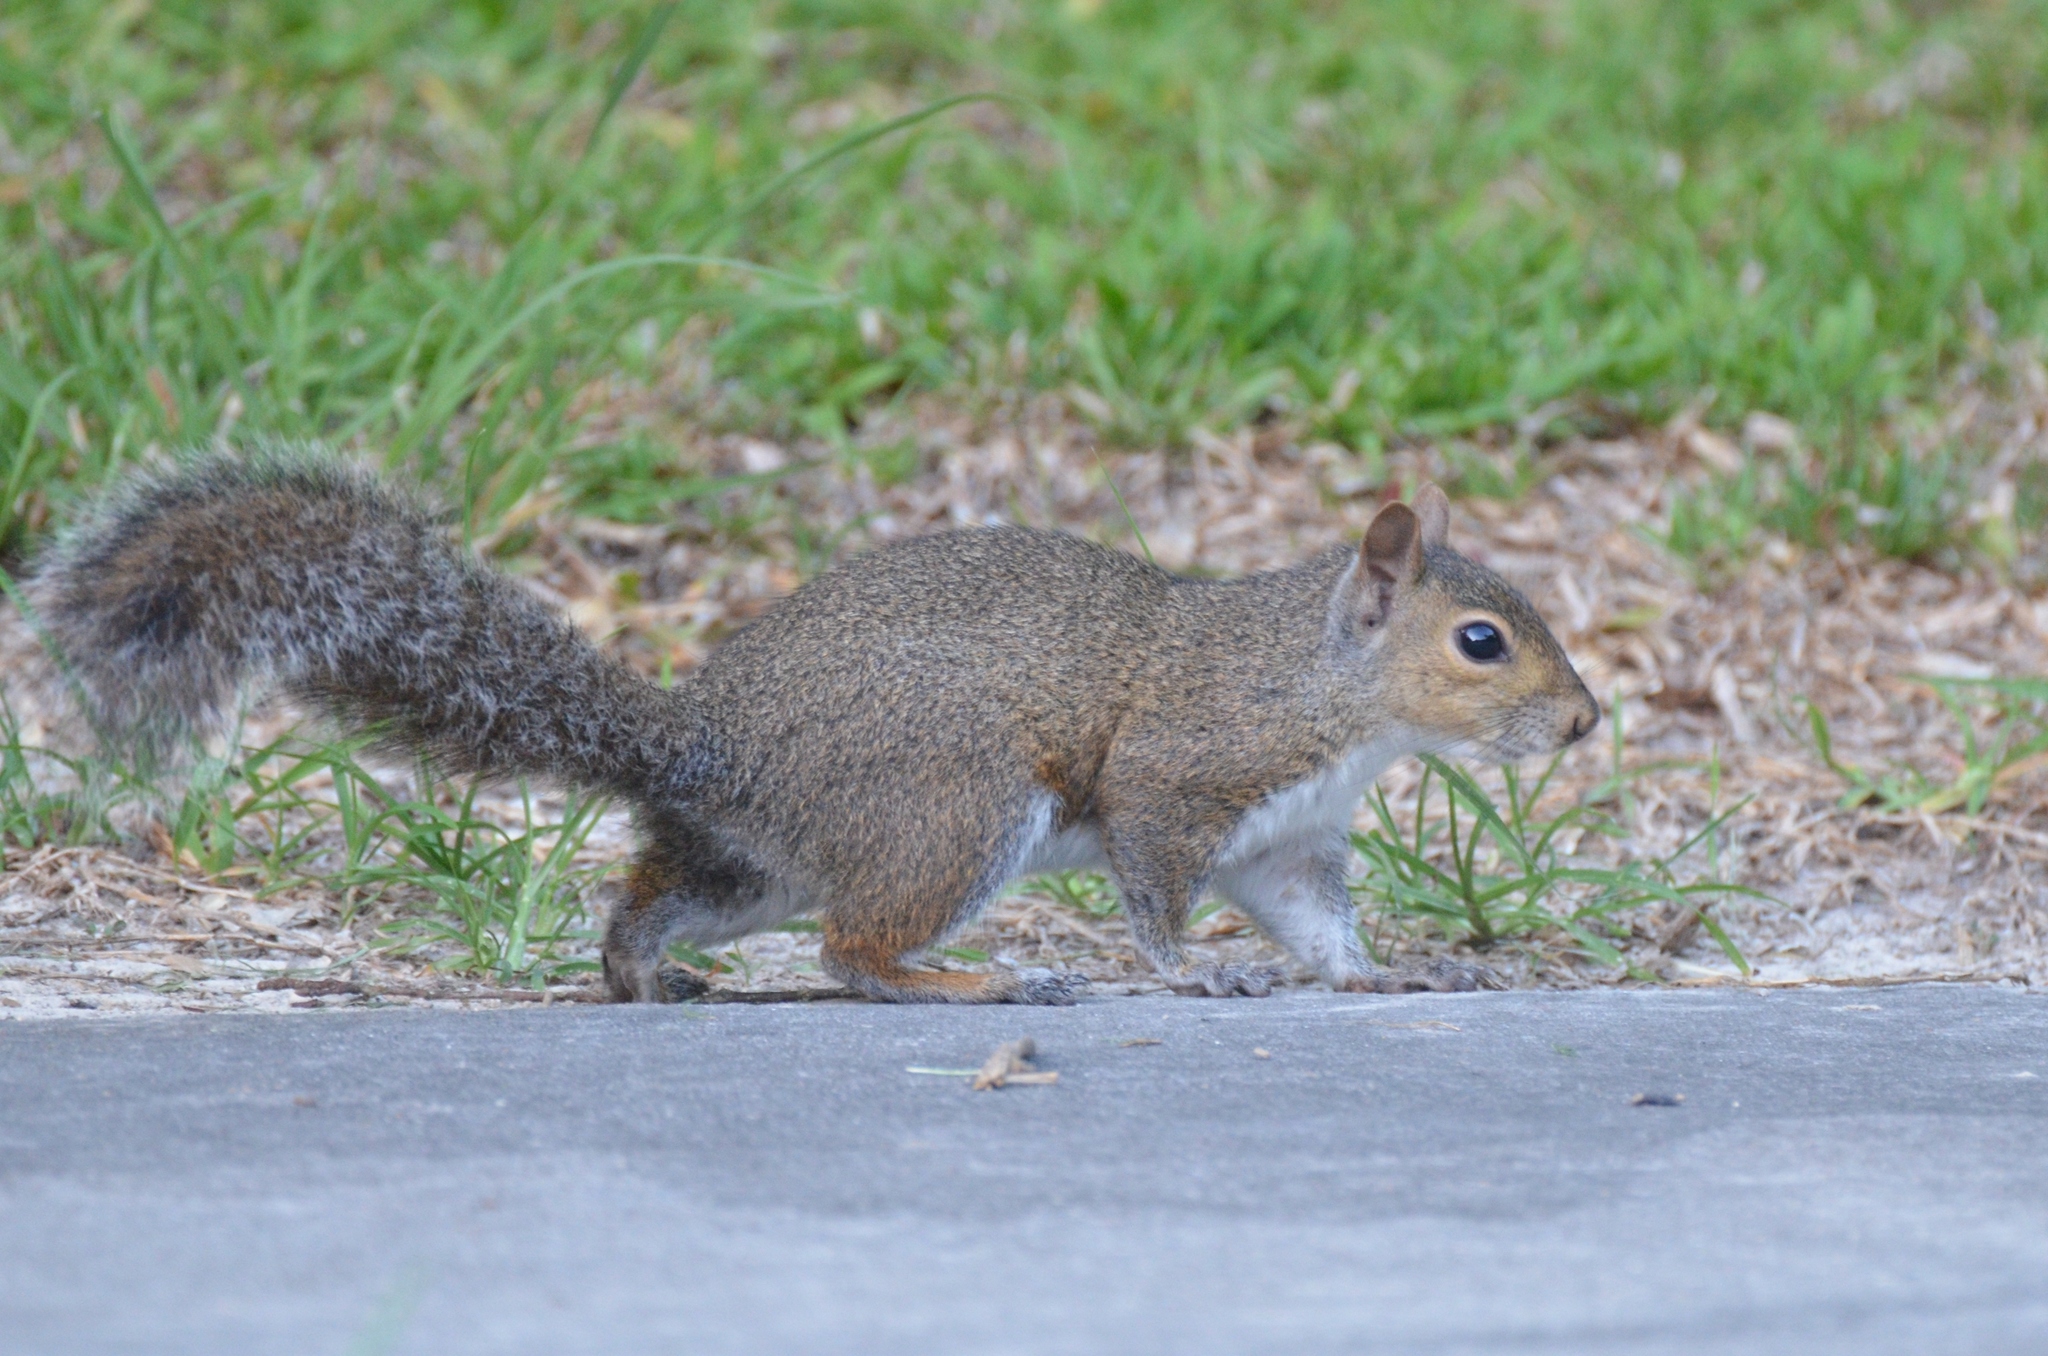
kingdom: Animalia
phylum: Chordata
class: Mammalia
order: Rodentia
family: Sciuridae
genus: Sciurus
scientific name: Sciurus carolinensis
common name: Eastern gray squirrel
